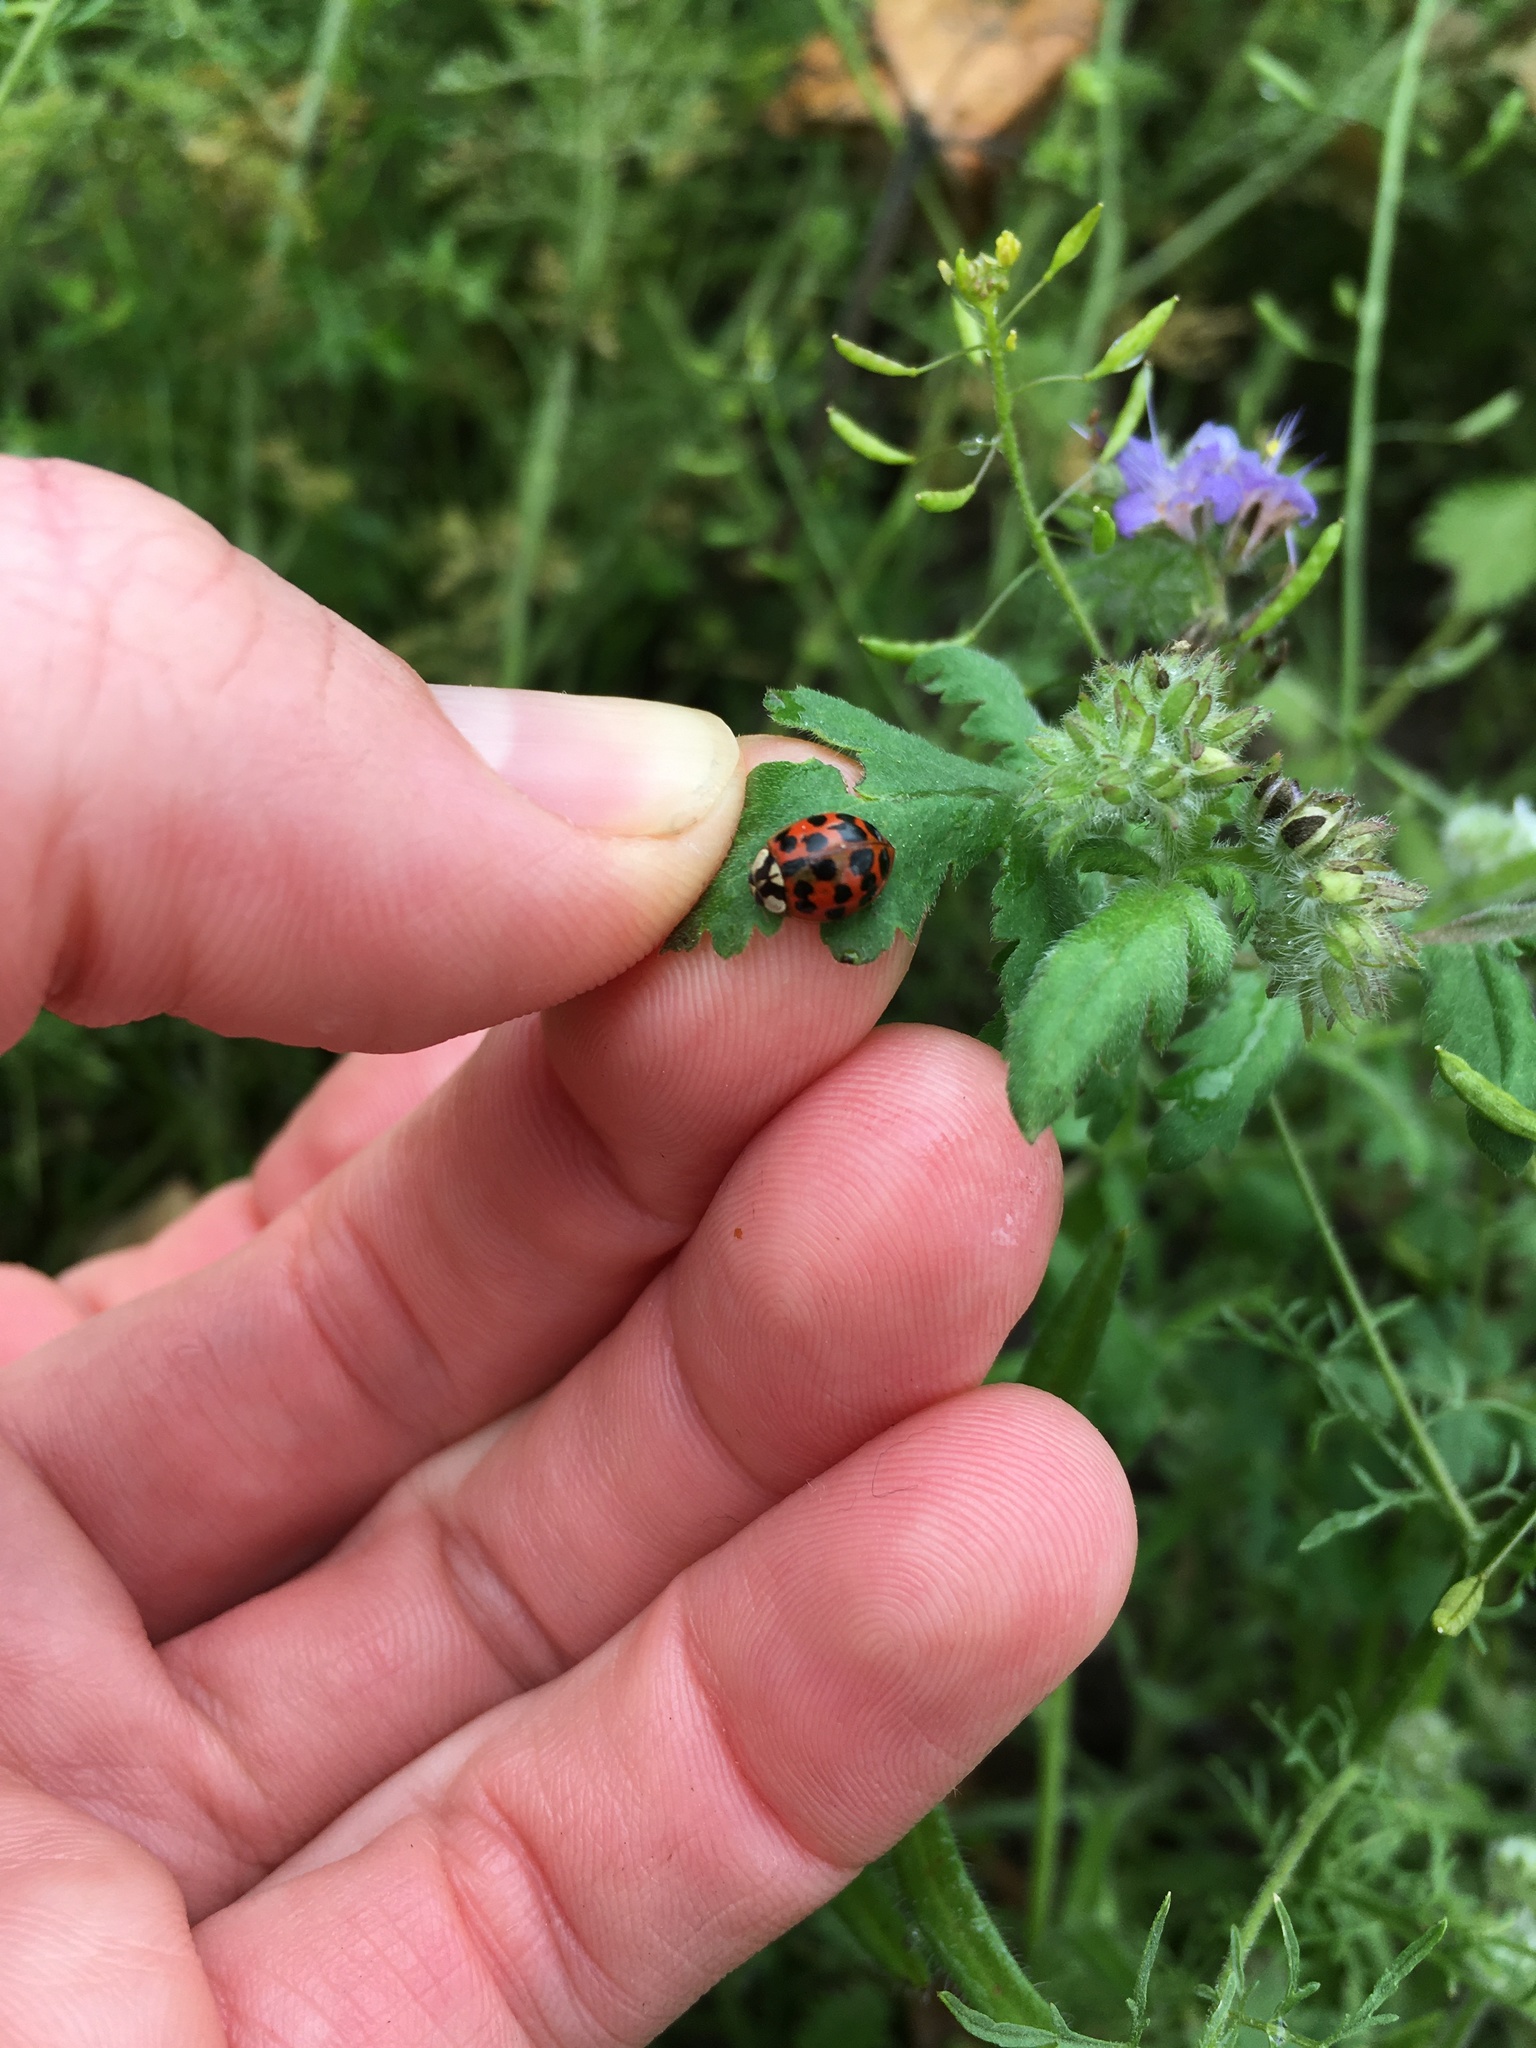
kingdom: Animalia
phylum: Arthropoda
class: Insecta
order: Coleoptera
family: Coccinellidae
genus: Harmonia
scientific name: Harmonia axyridis
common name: Harlequin ladybird
